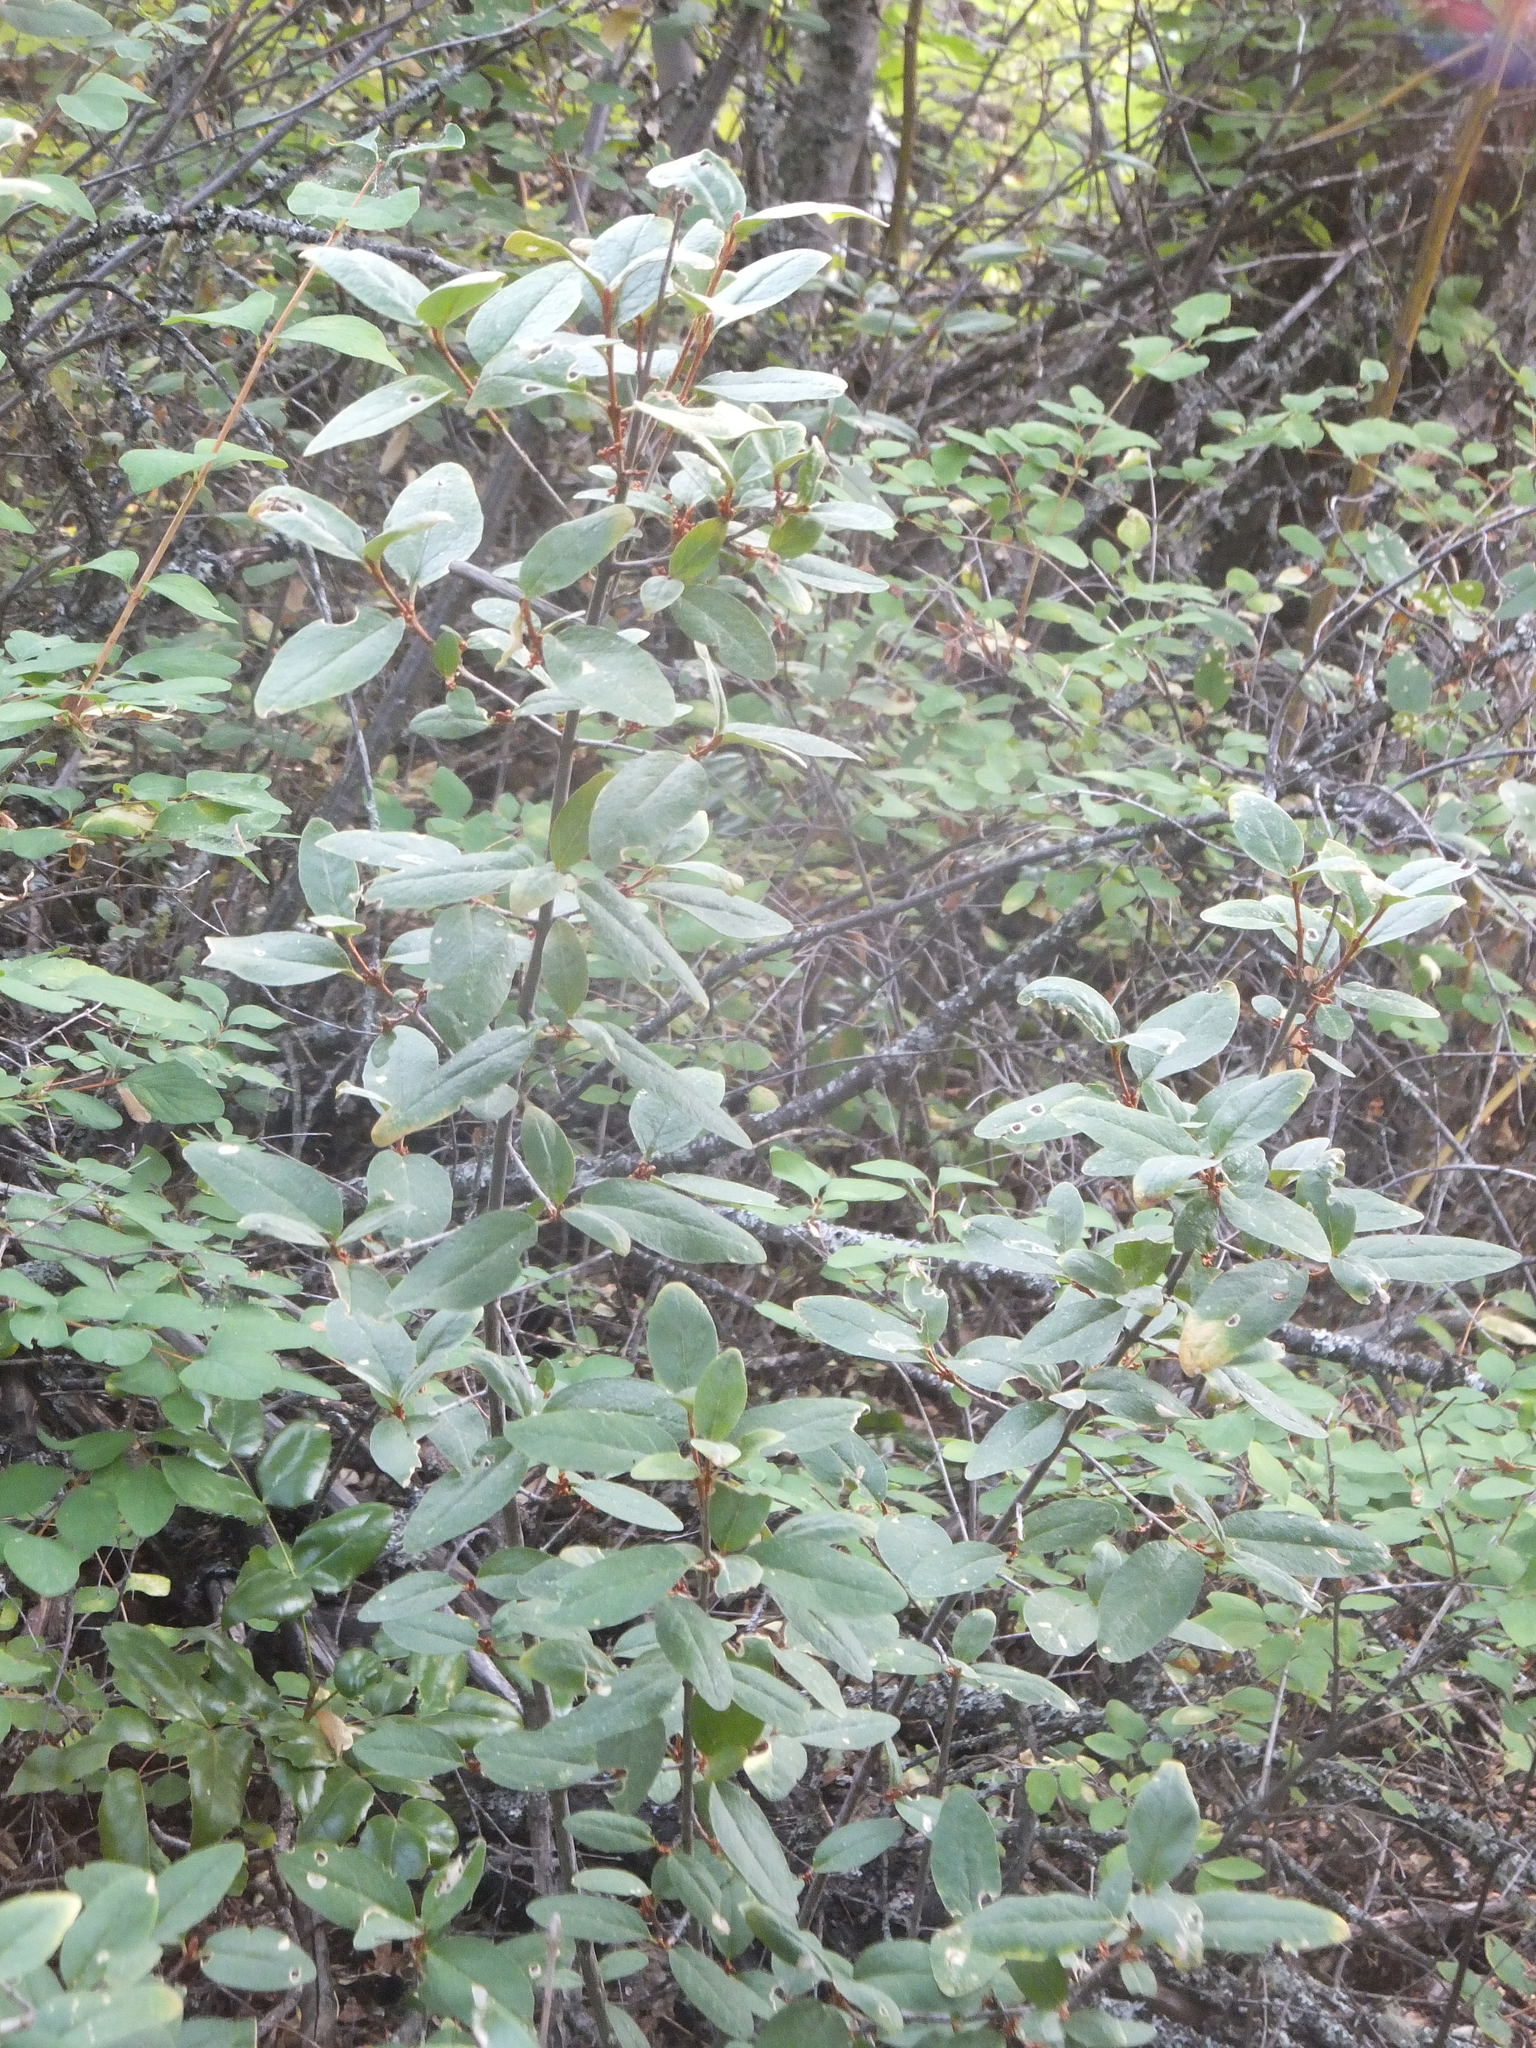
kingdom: Plantae
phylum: Tracheophyta
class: Magnoliopsida
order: Rosales
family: Elaeagnaceae
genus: Shepherdia
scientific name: Shepherdia canadensis
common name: Soapberry
